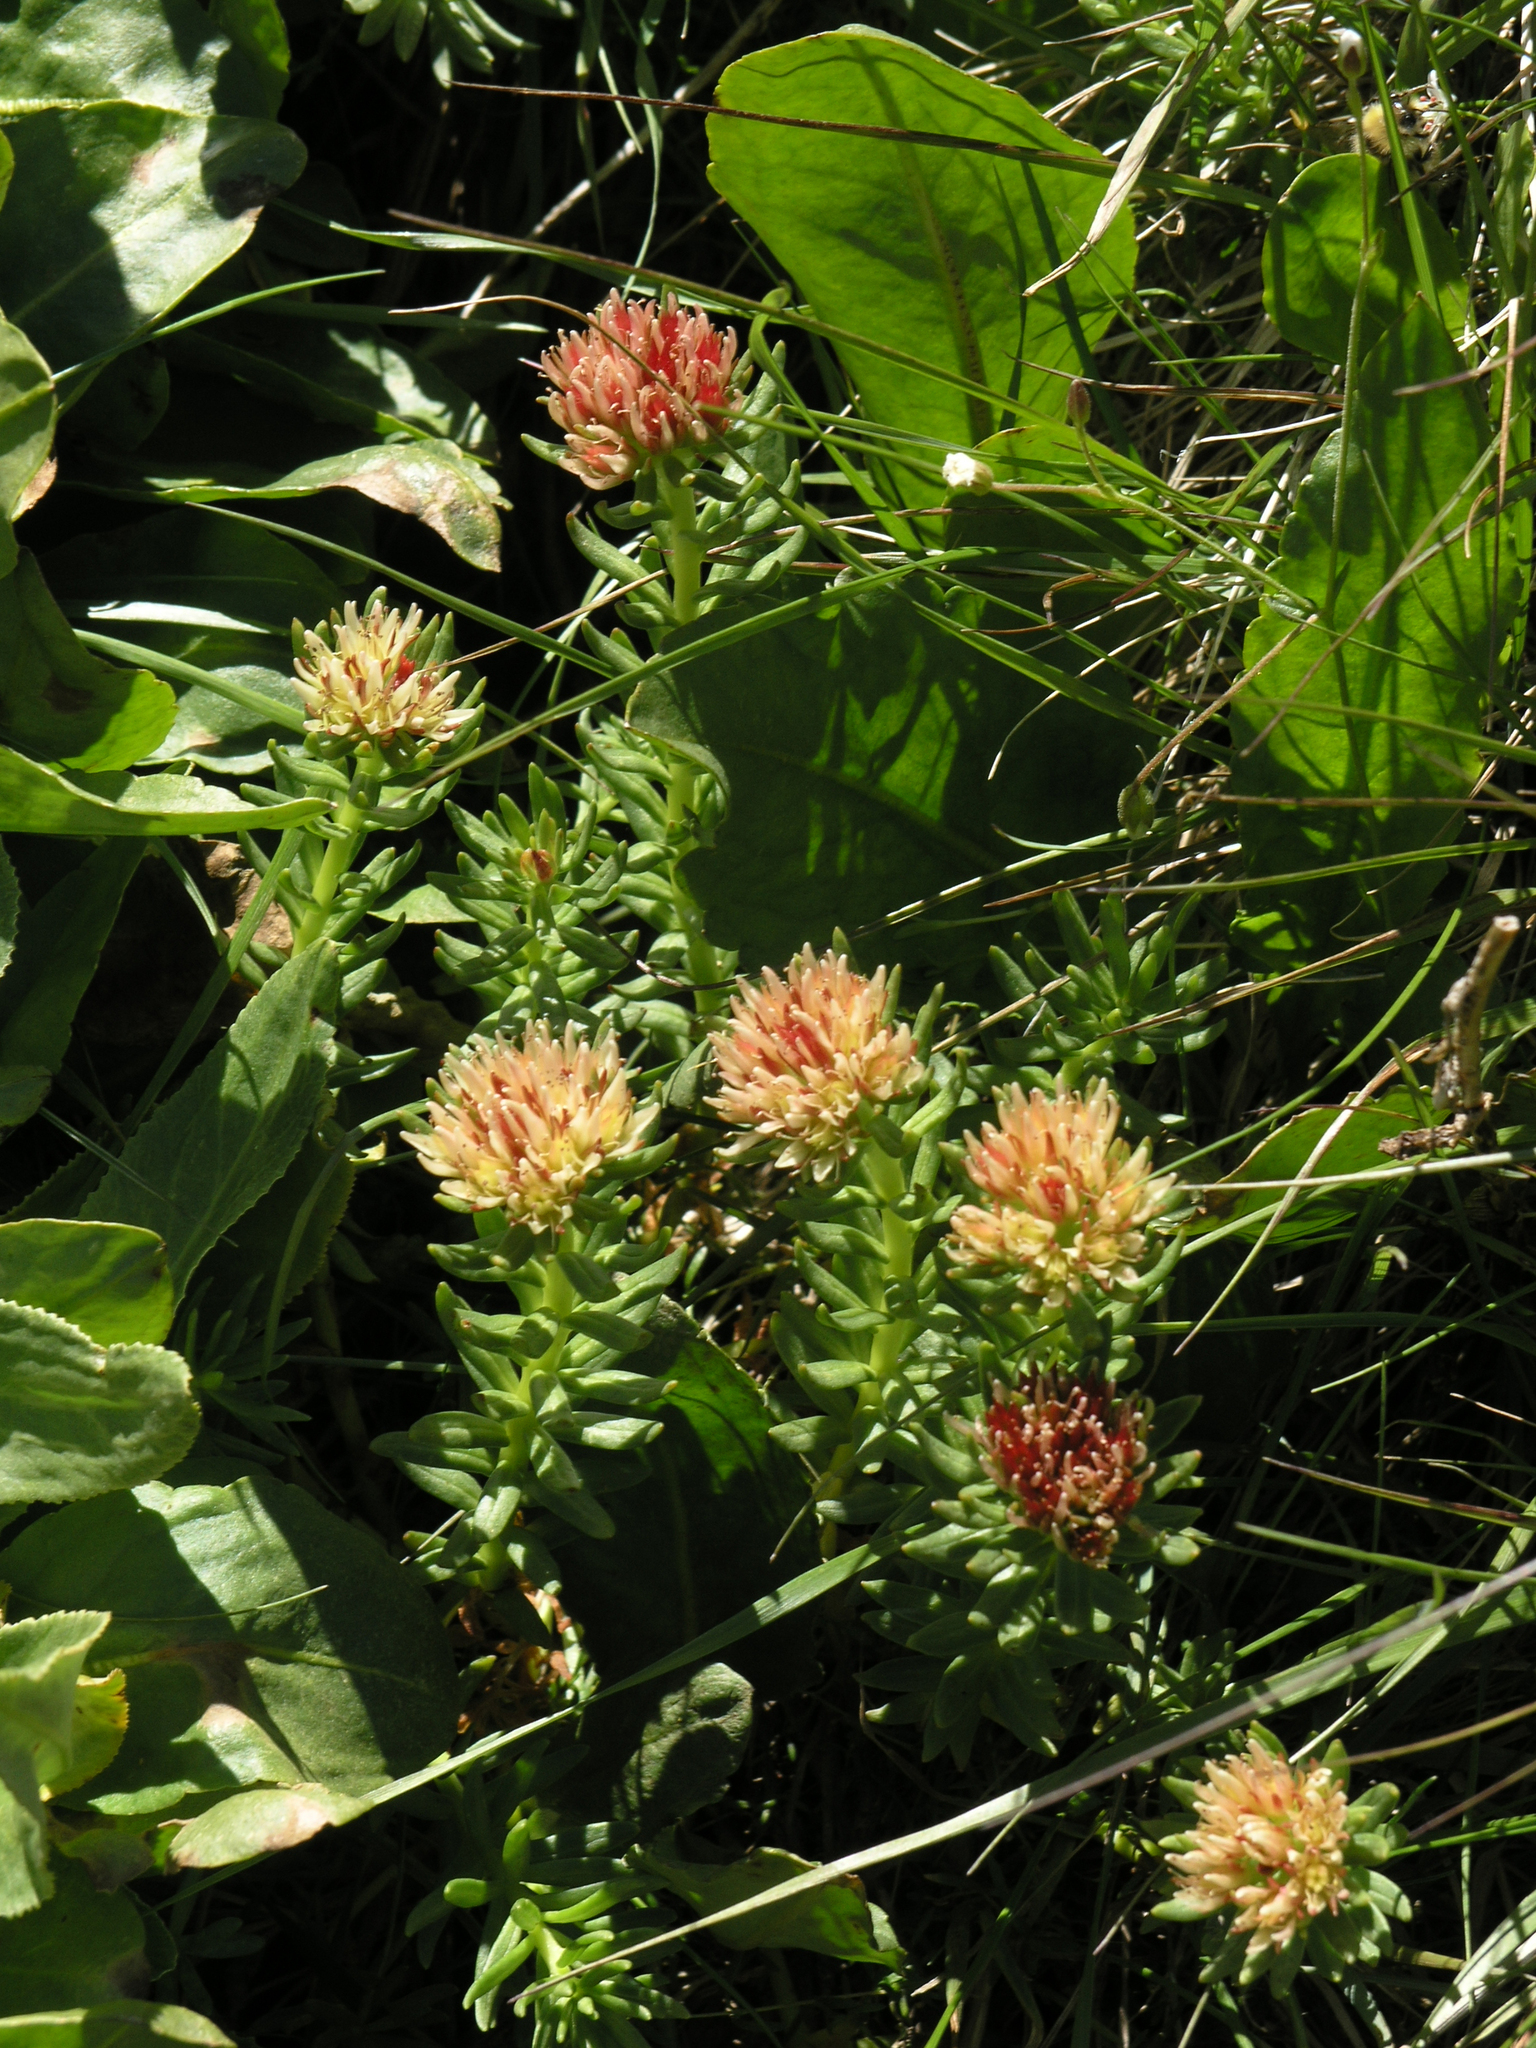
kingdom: Plantae
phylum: Tracheophyta
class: Magnoliopsida
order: Saxifragales
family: Crassulaceae
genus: Rhodiola
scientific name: Rhodiola algida
